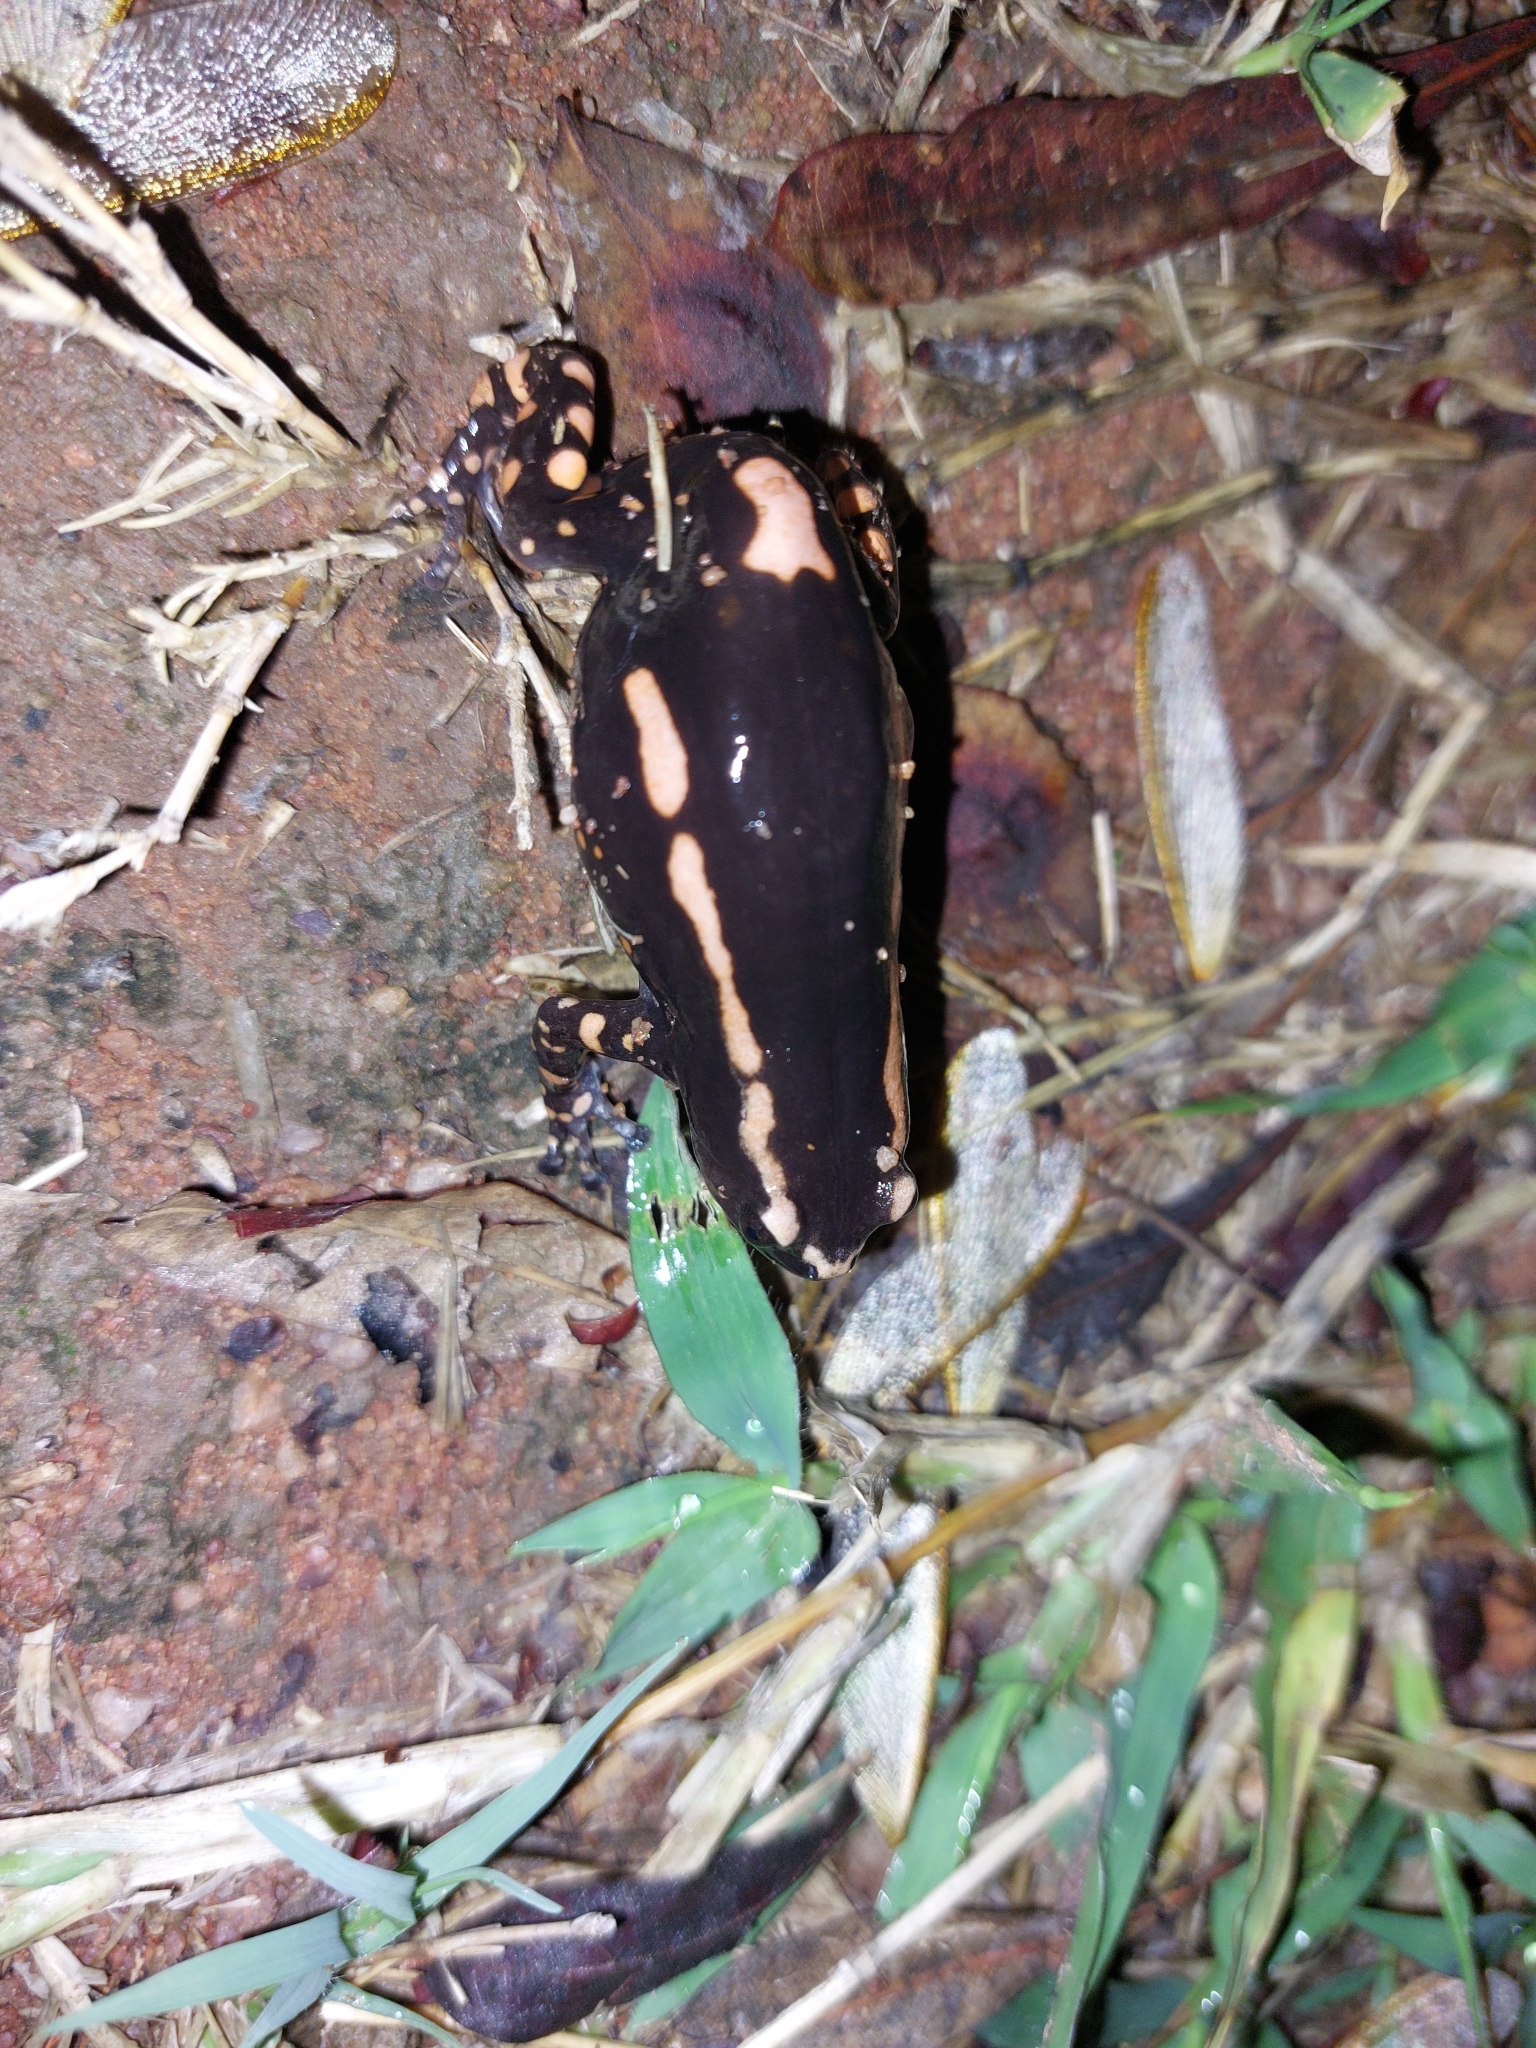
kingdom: Animalia
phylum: Chordata
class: Amphibia
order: Anura
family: Microhylidae
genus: Phrynomantis
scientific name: Phrynomantis bifasciatus
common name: Banded rubber frog
